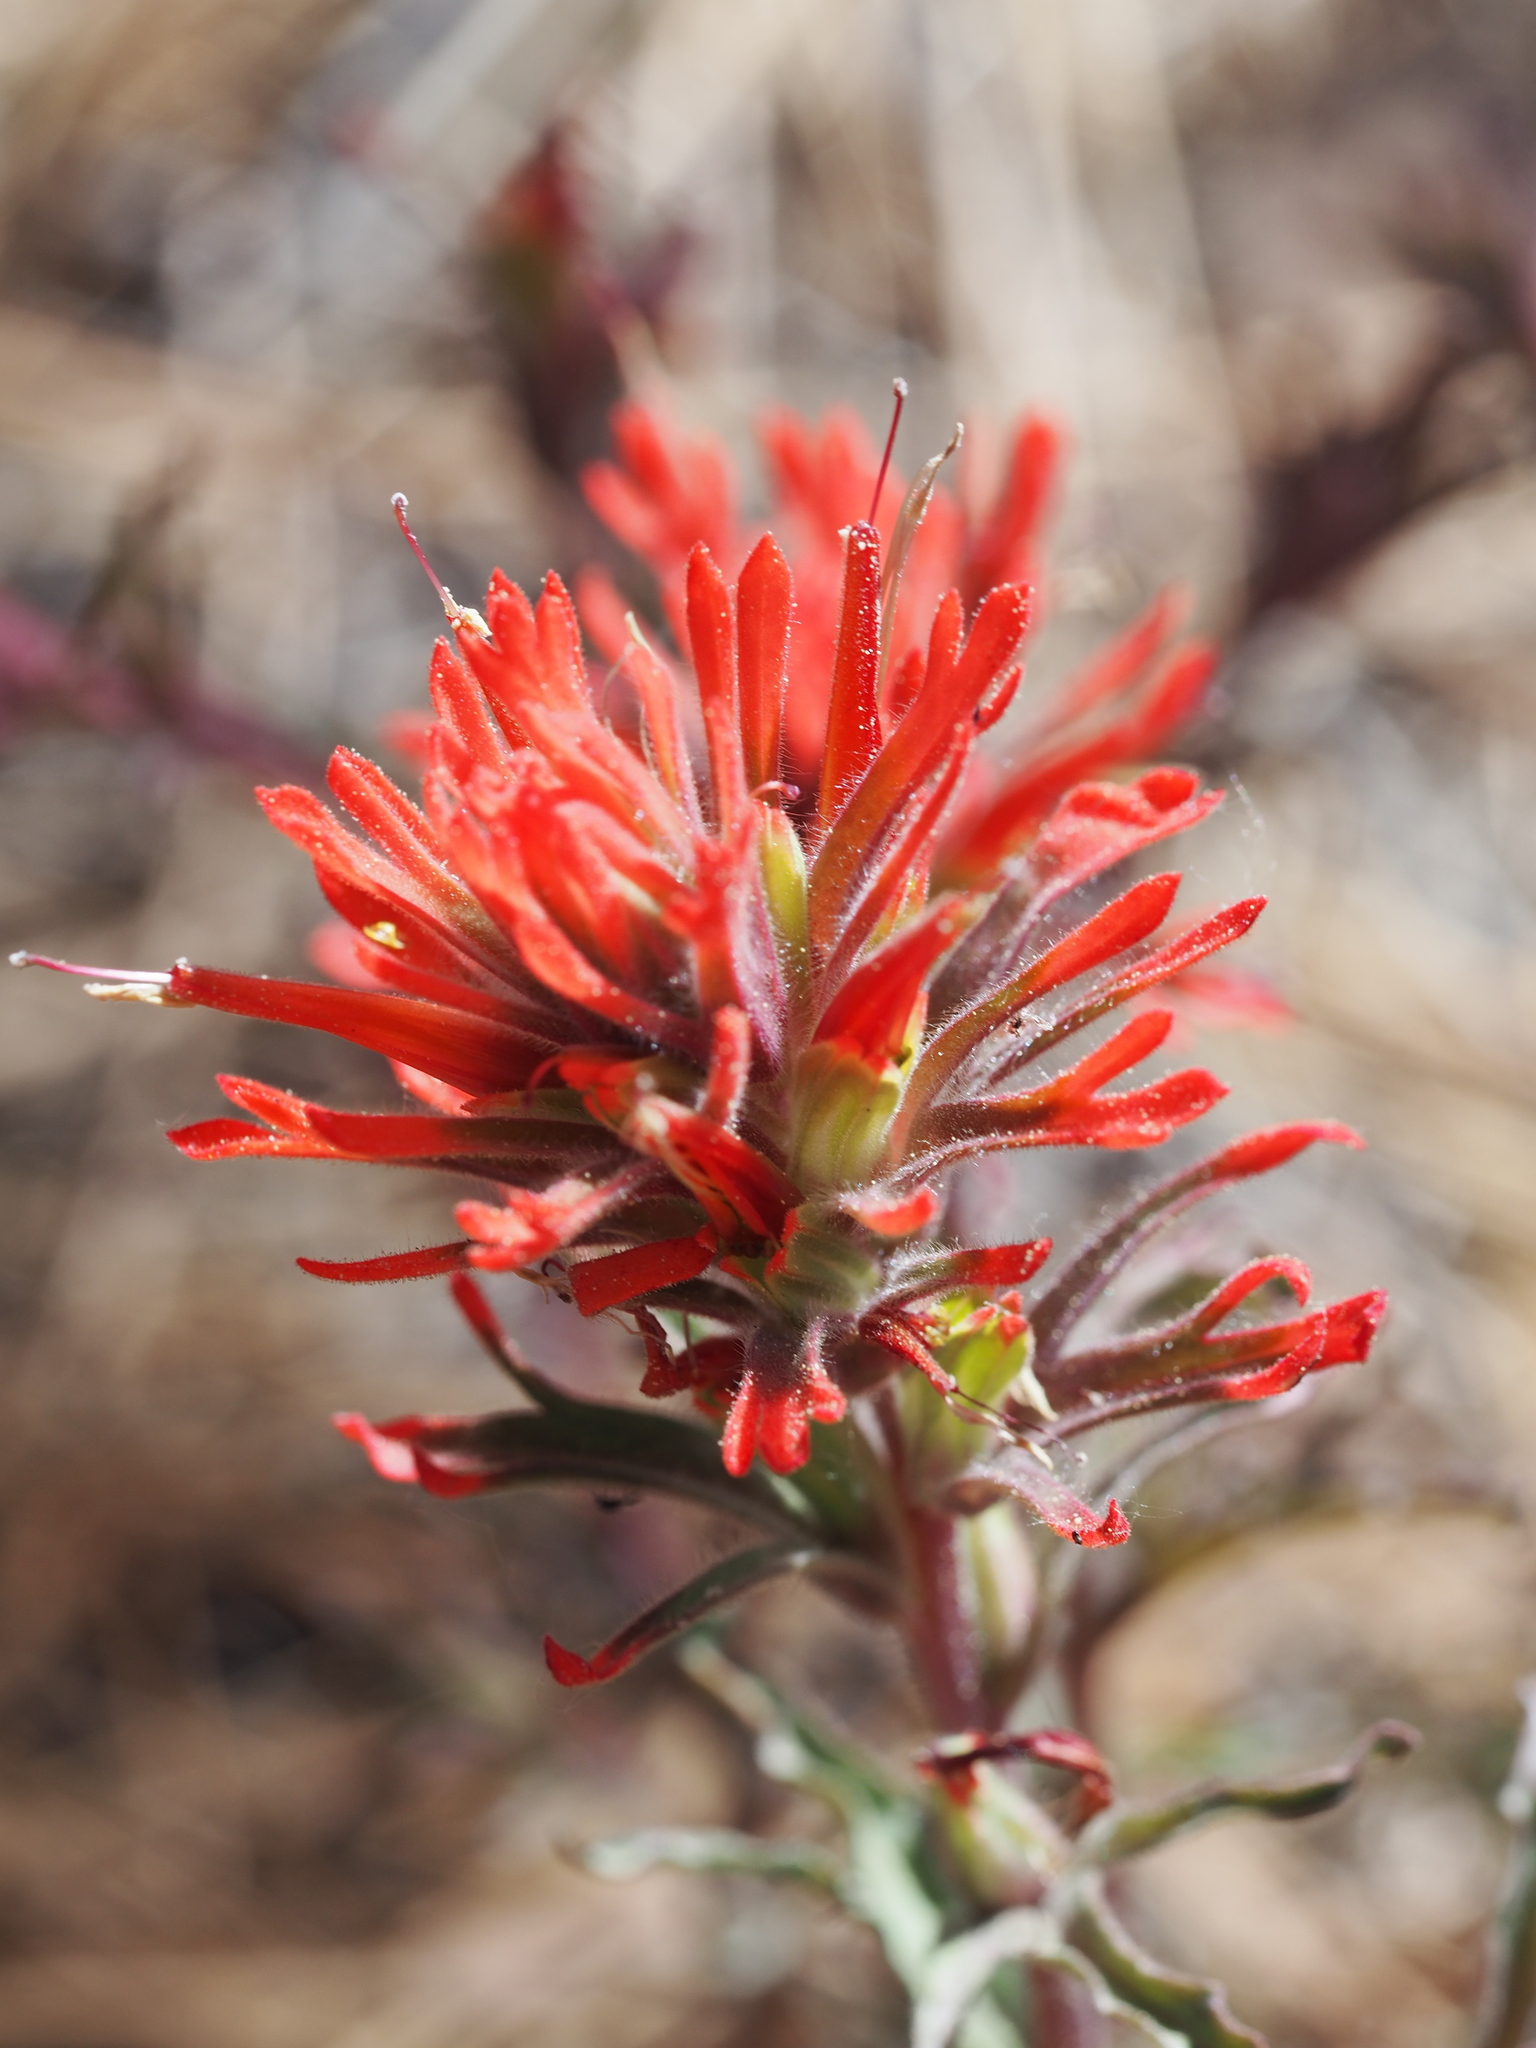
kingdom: Plantae
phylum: Tracheophyta
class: Magnoliopsida
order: Lamiales
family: Orobanchaceae
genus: Castilleja
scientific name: Castilleja applegatei
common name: Wavy-leaf paintbrush
